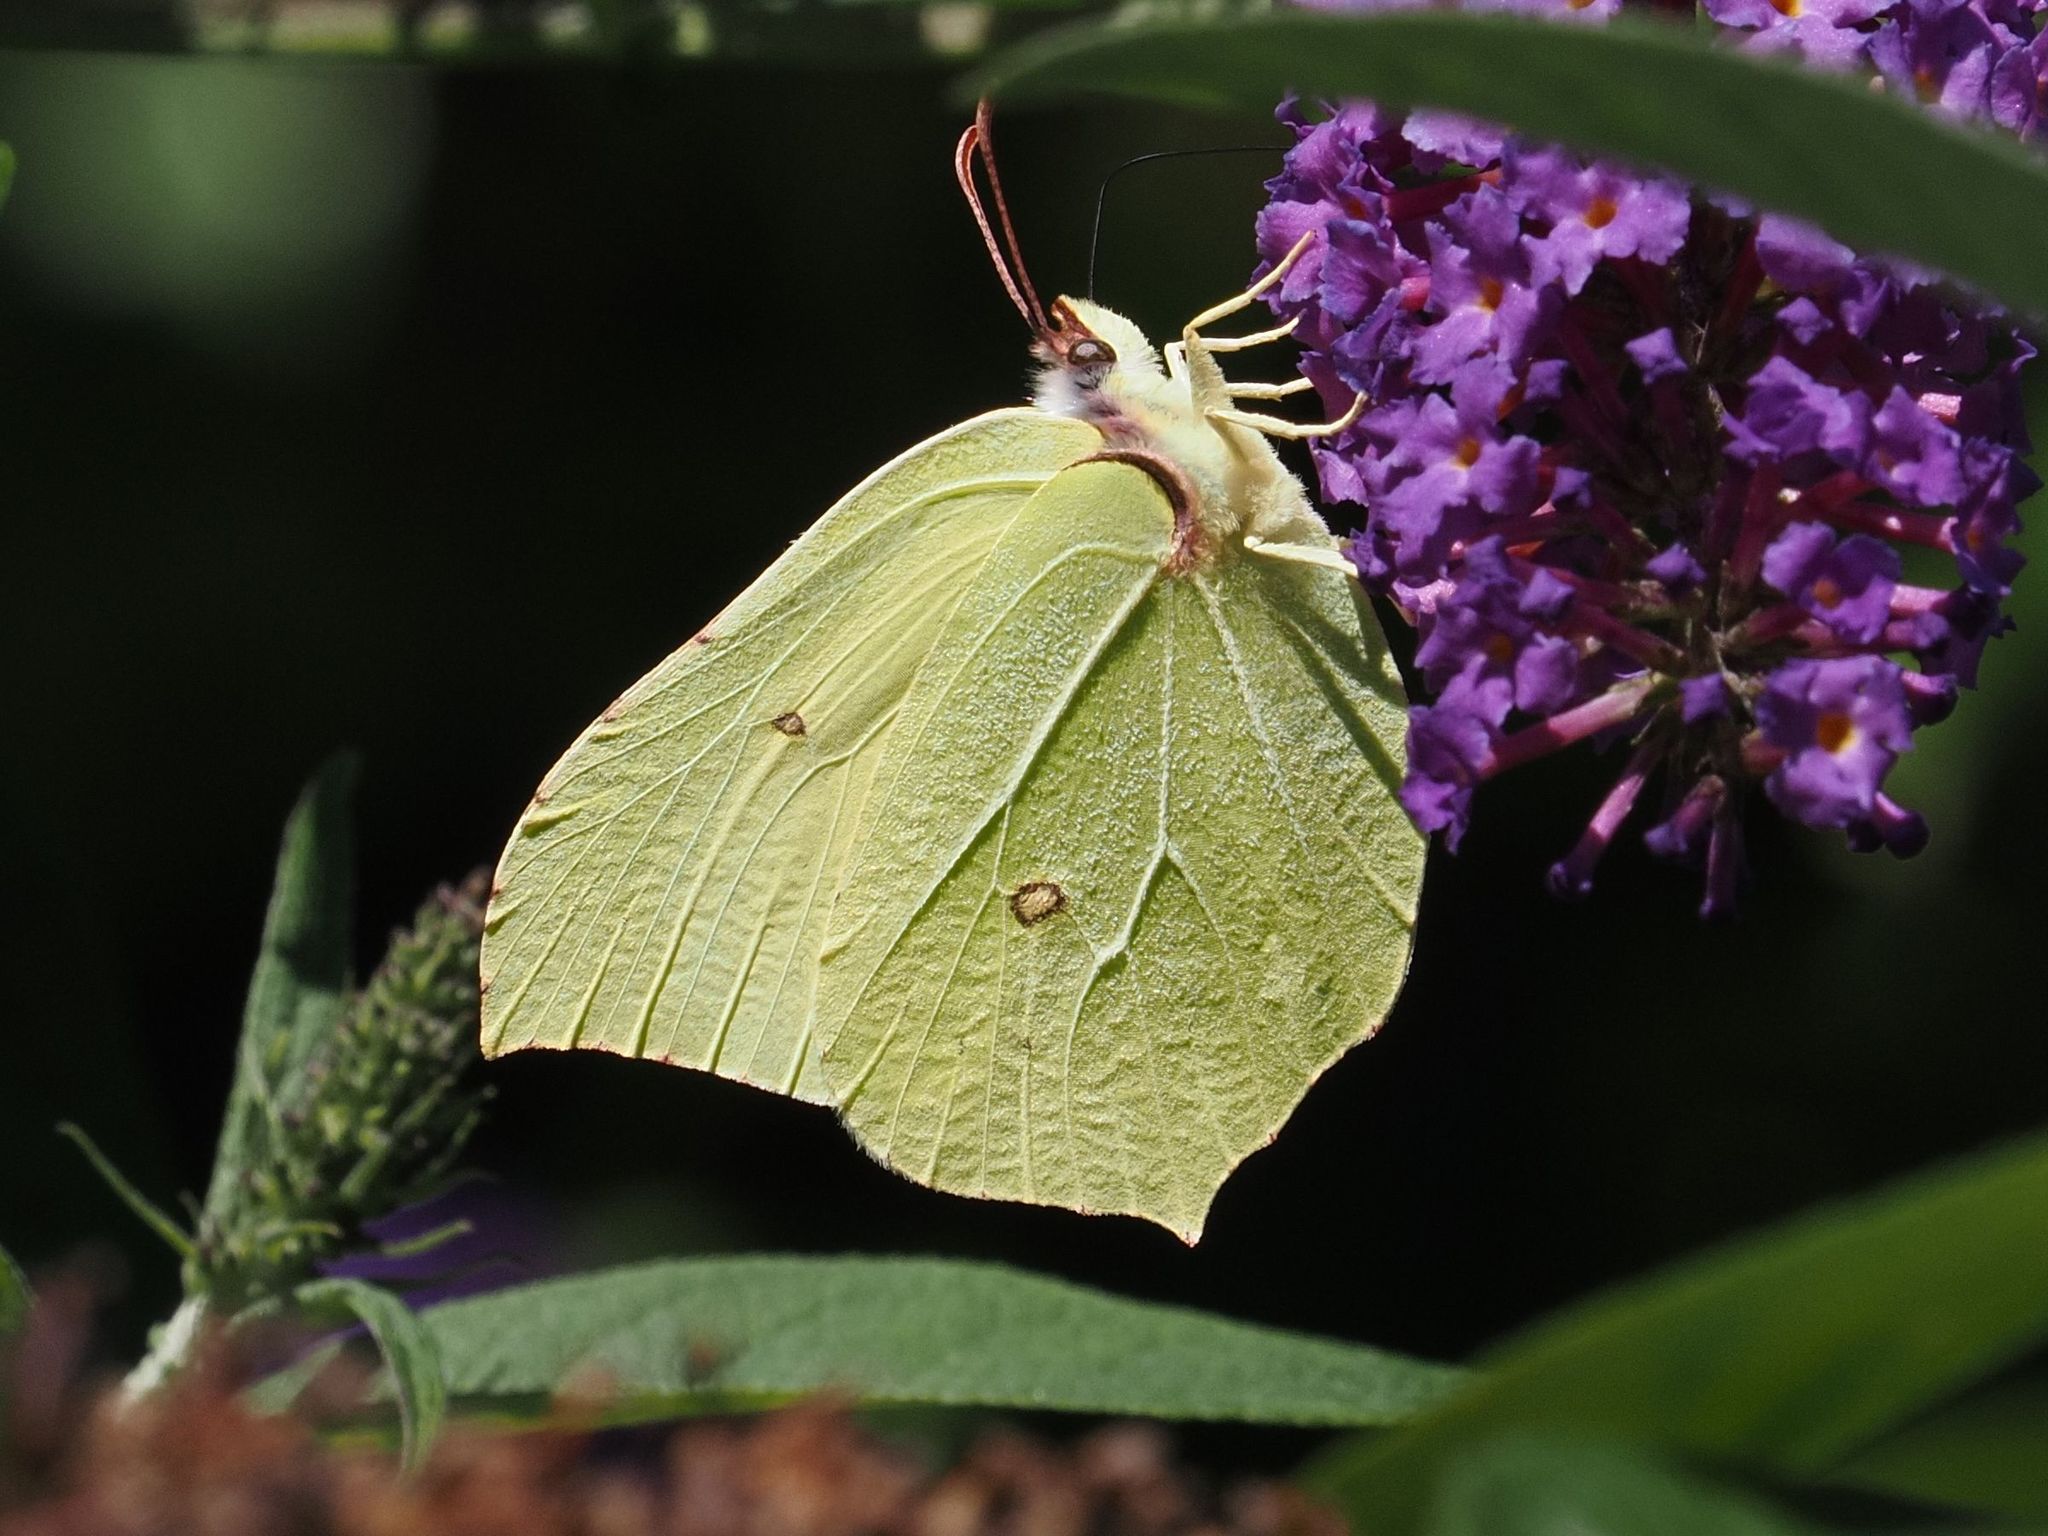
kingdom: Animalia
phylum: Arthropoda
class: Insecta
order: Lepidoptera
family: Pieridae
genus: Gonepteryx
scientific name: Gonepteryx rhamni
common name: Brimstone
